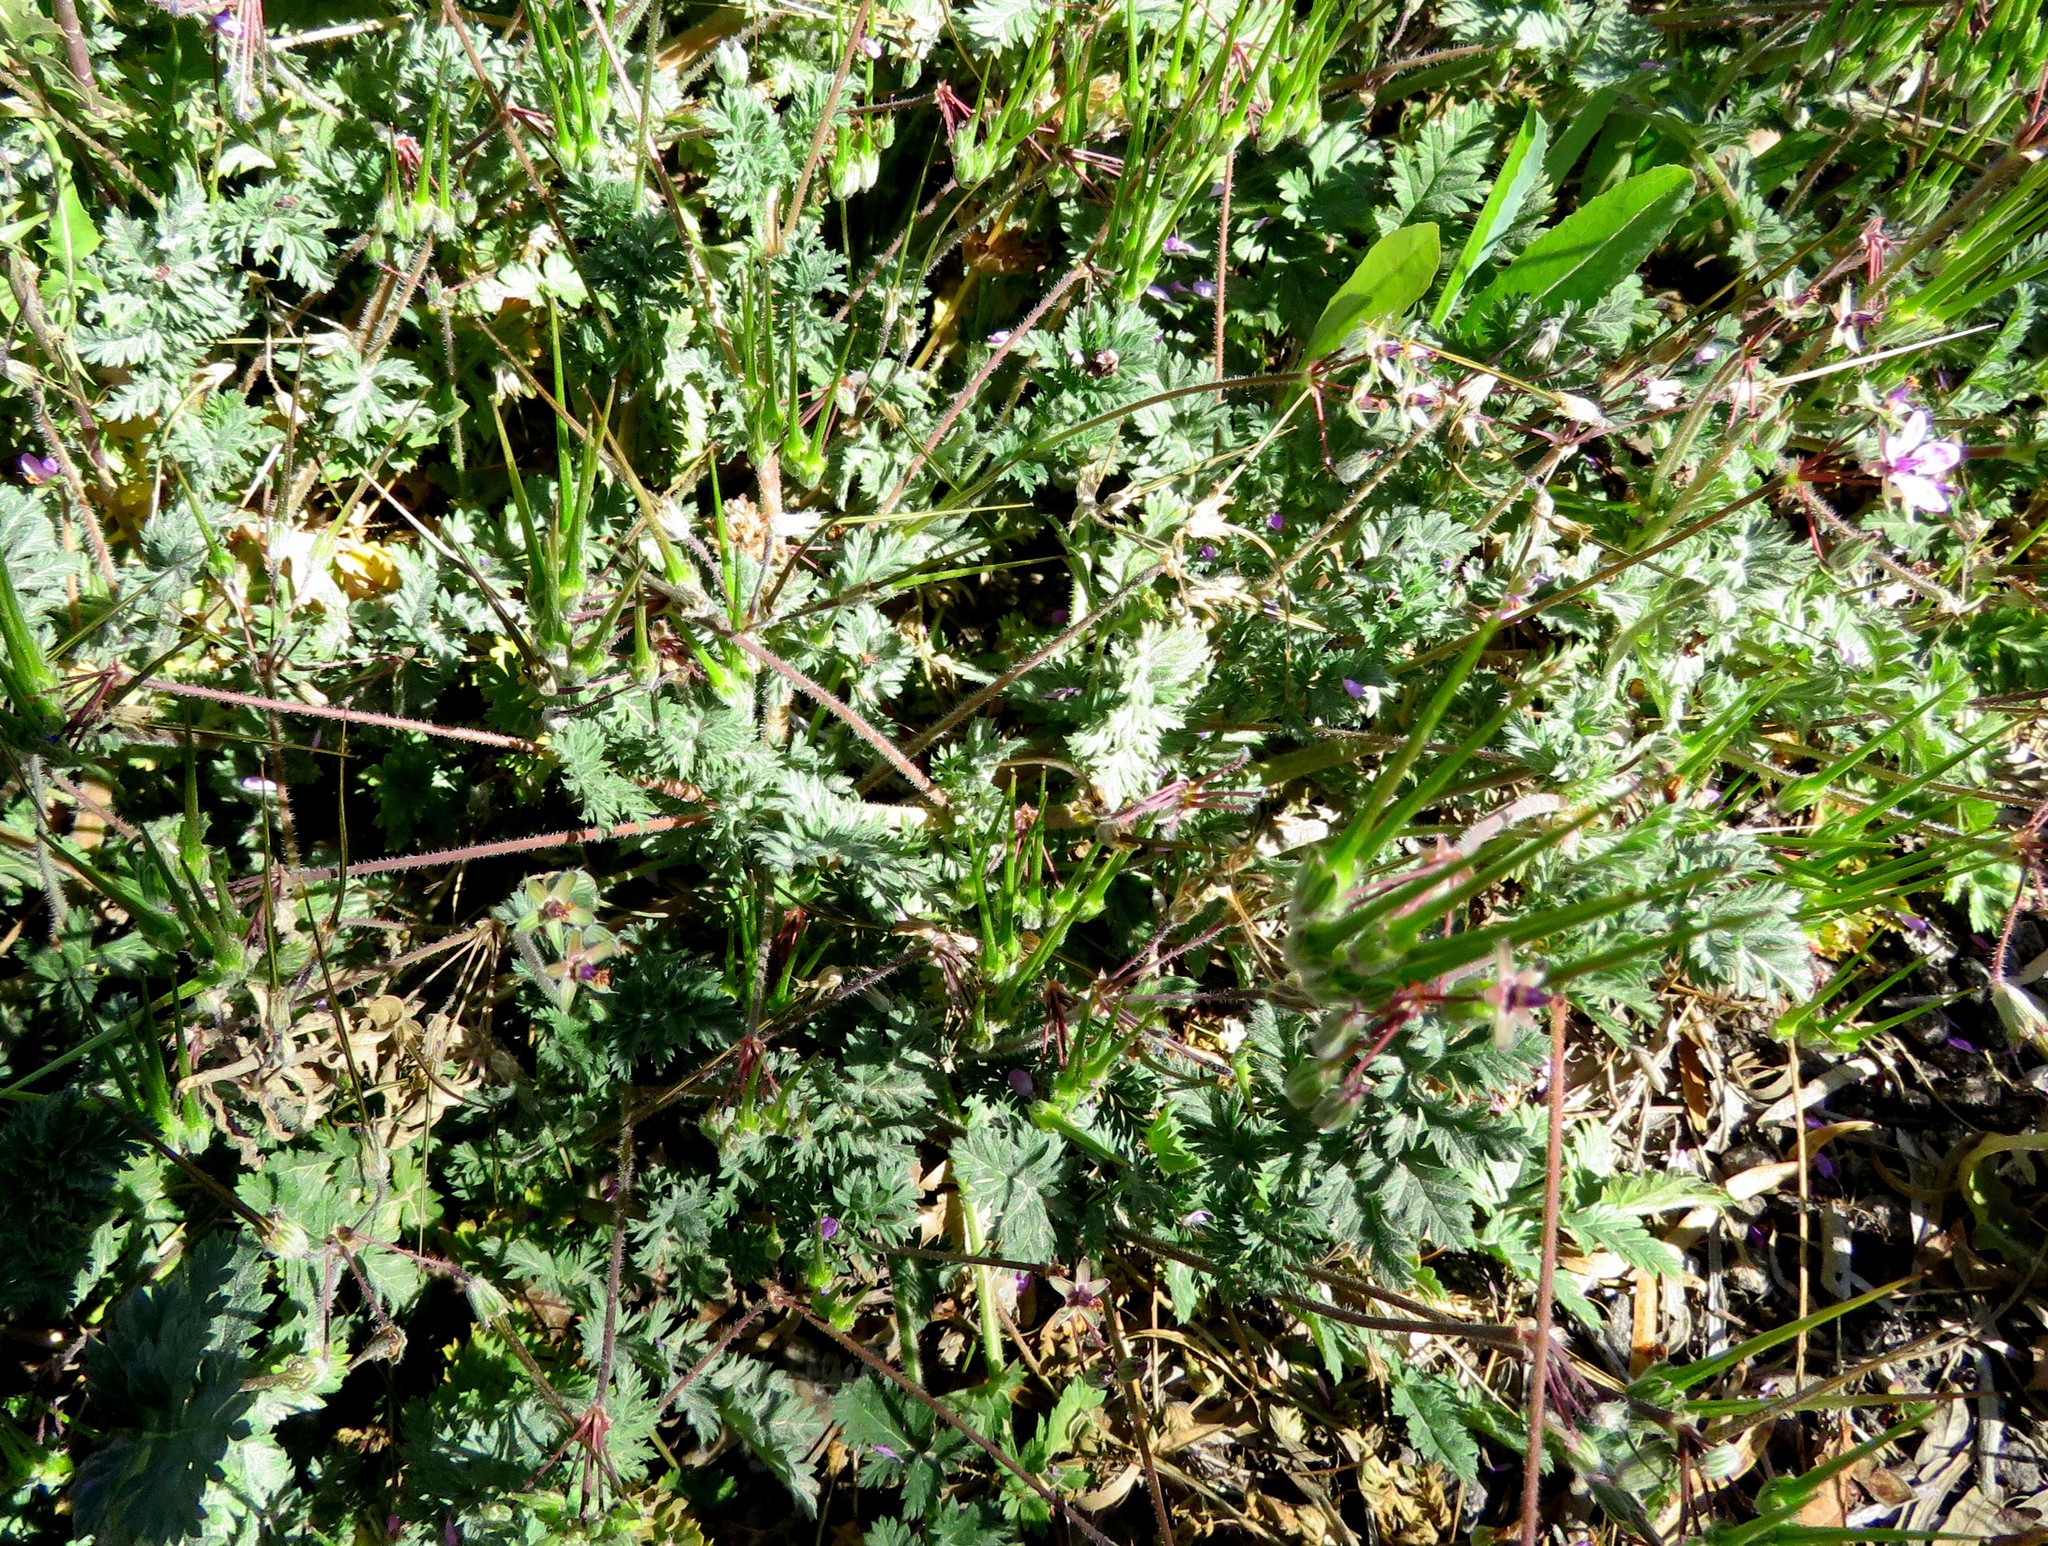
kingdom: Plantae
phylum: Tracheophyta
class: Magnoliopsida
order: Geraniales
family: Geraniaceae
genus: Erodium
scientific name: Erodium cicutarium
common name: Common stork's-bill
